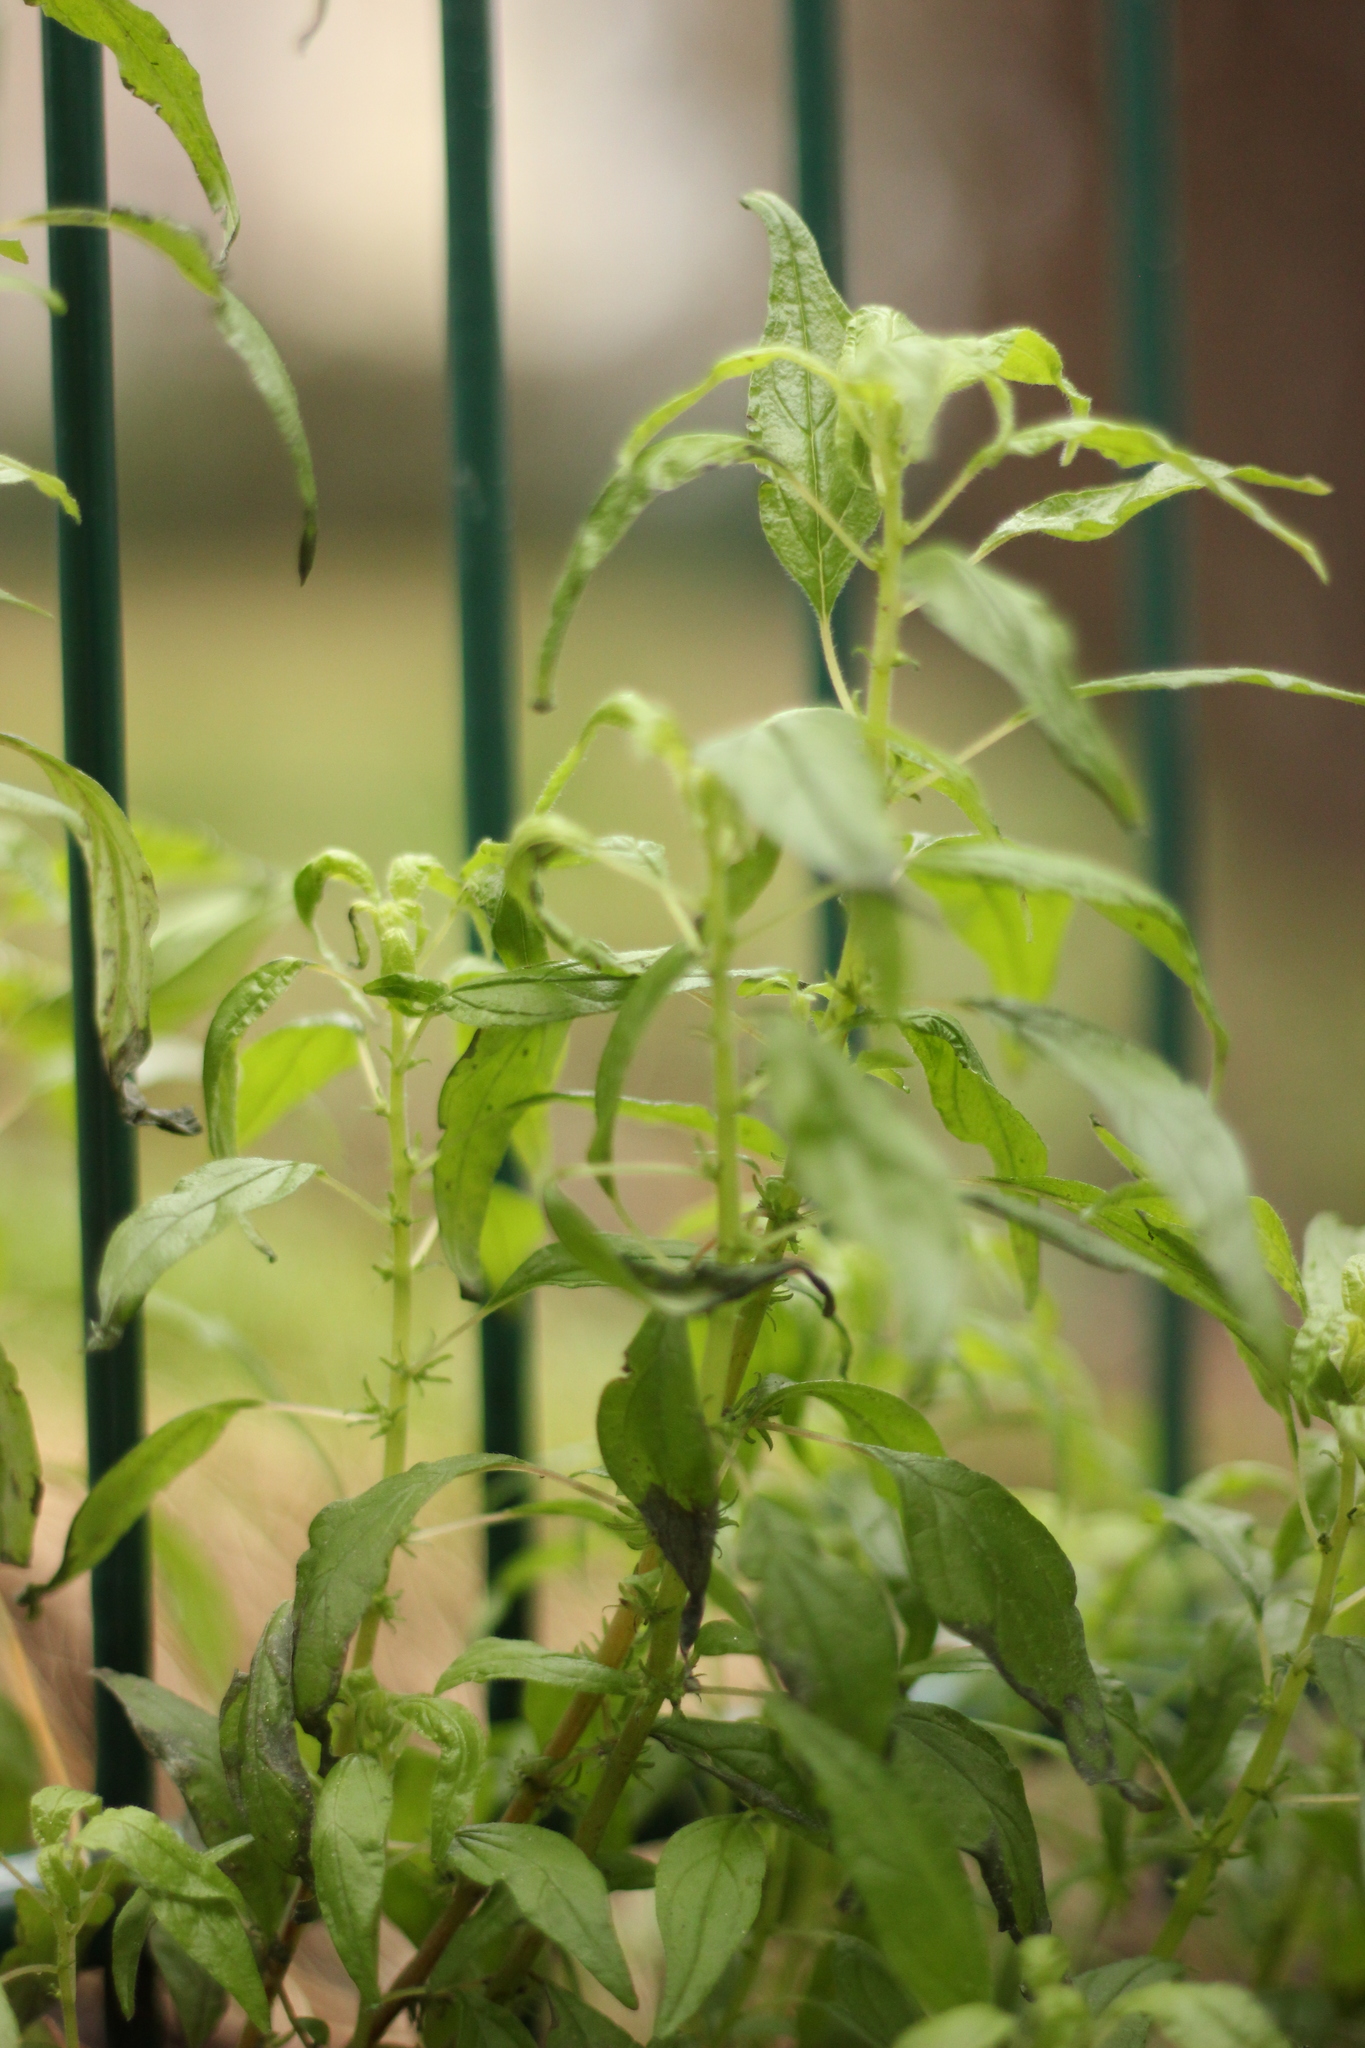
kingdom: Plantae
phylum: Tracheophyta
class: Magnoliopsida
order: Rosales
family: Urticaceae
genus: Parietaria
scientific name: Parietaria pensylvanica
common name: Pennsylvania pellitory
